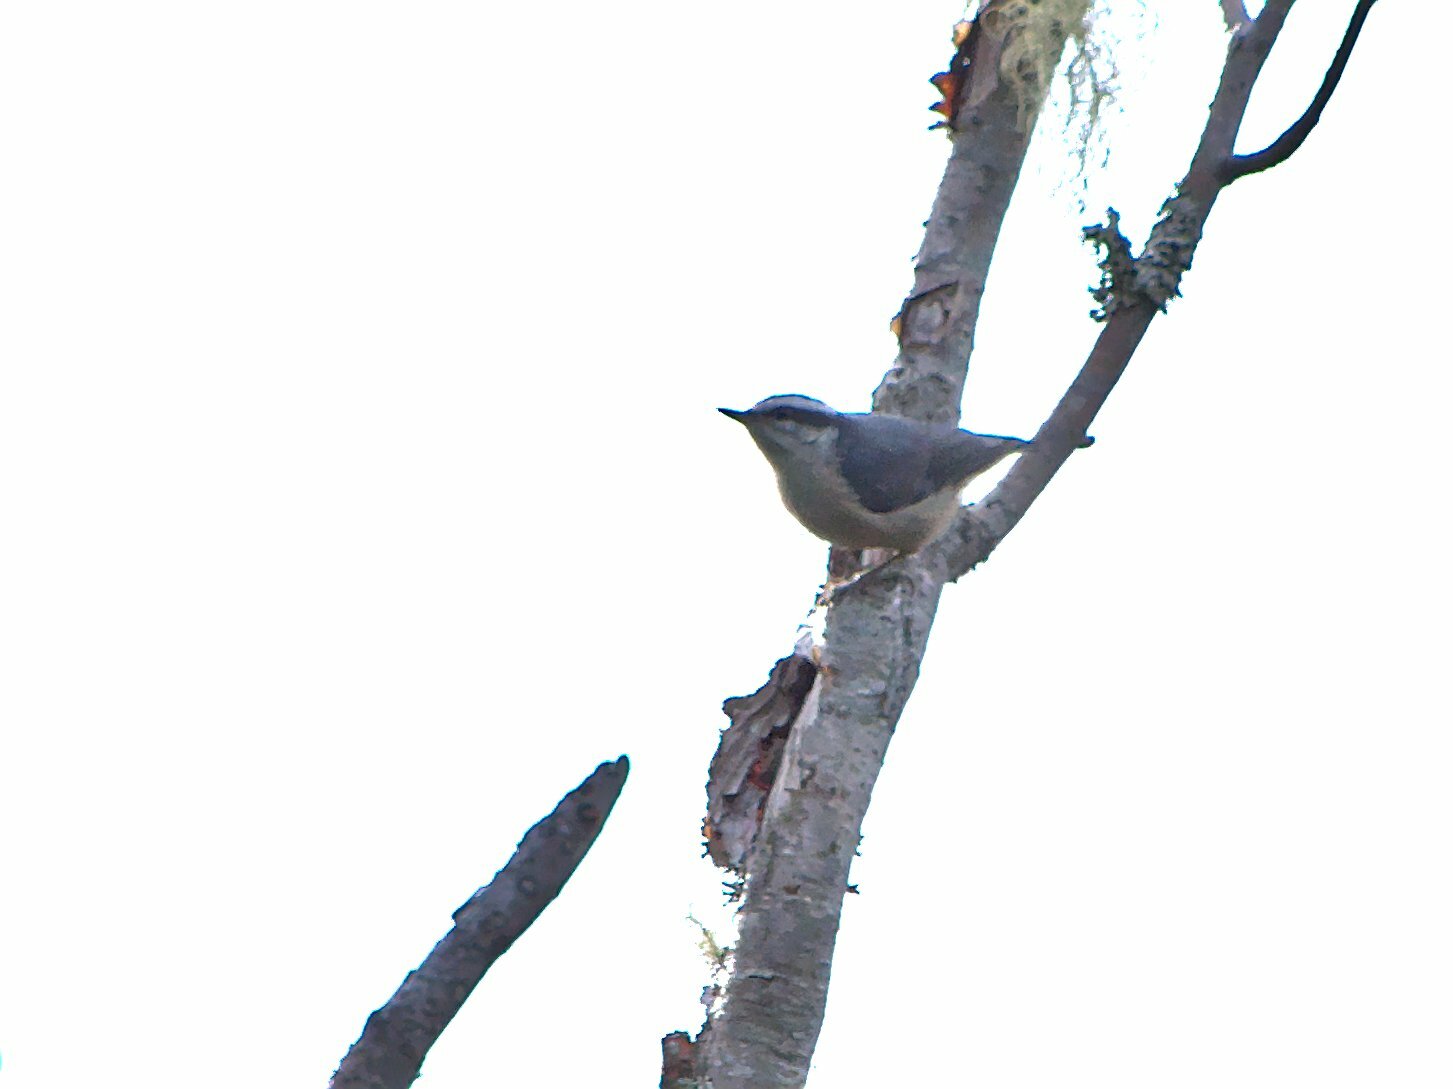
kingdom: Animalia
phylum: Chordata
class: Aves
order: Passeriformes
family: Sittidae
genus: Sitta
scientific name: Sitta canadensis
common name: Red-breasted nuthatch
